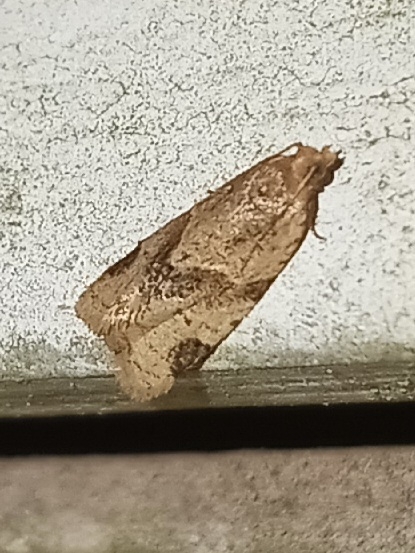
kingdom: Animalia
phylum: Arthropoda
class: Insecta
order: Lepidoptera
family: Tortricidae
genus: Clepsis
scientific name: Clepsis peritana
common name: Garden tortrix
